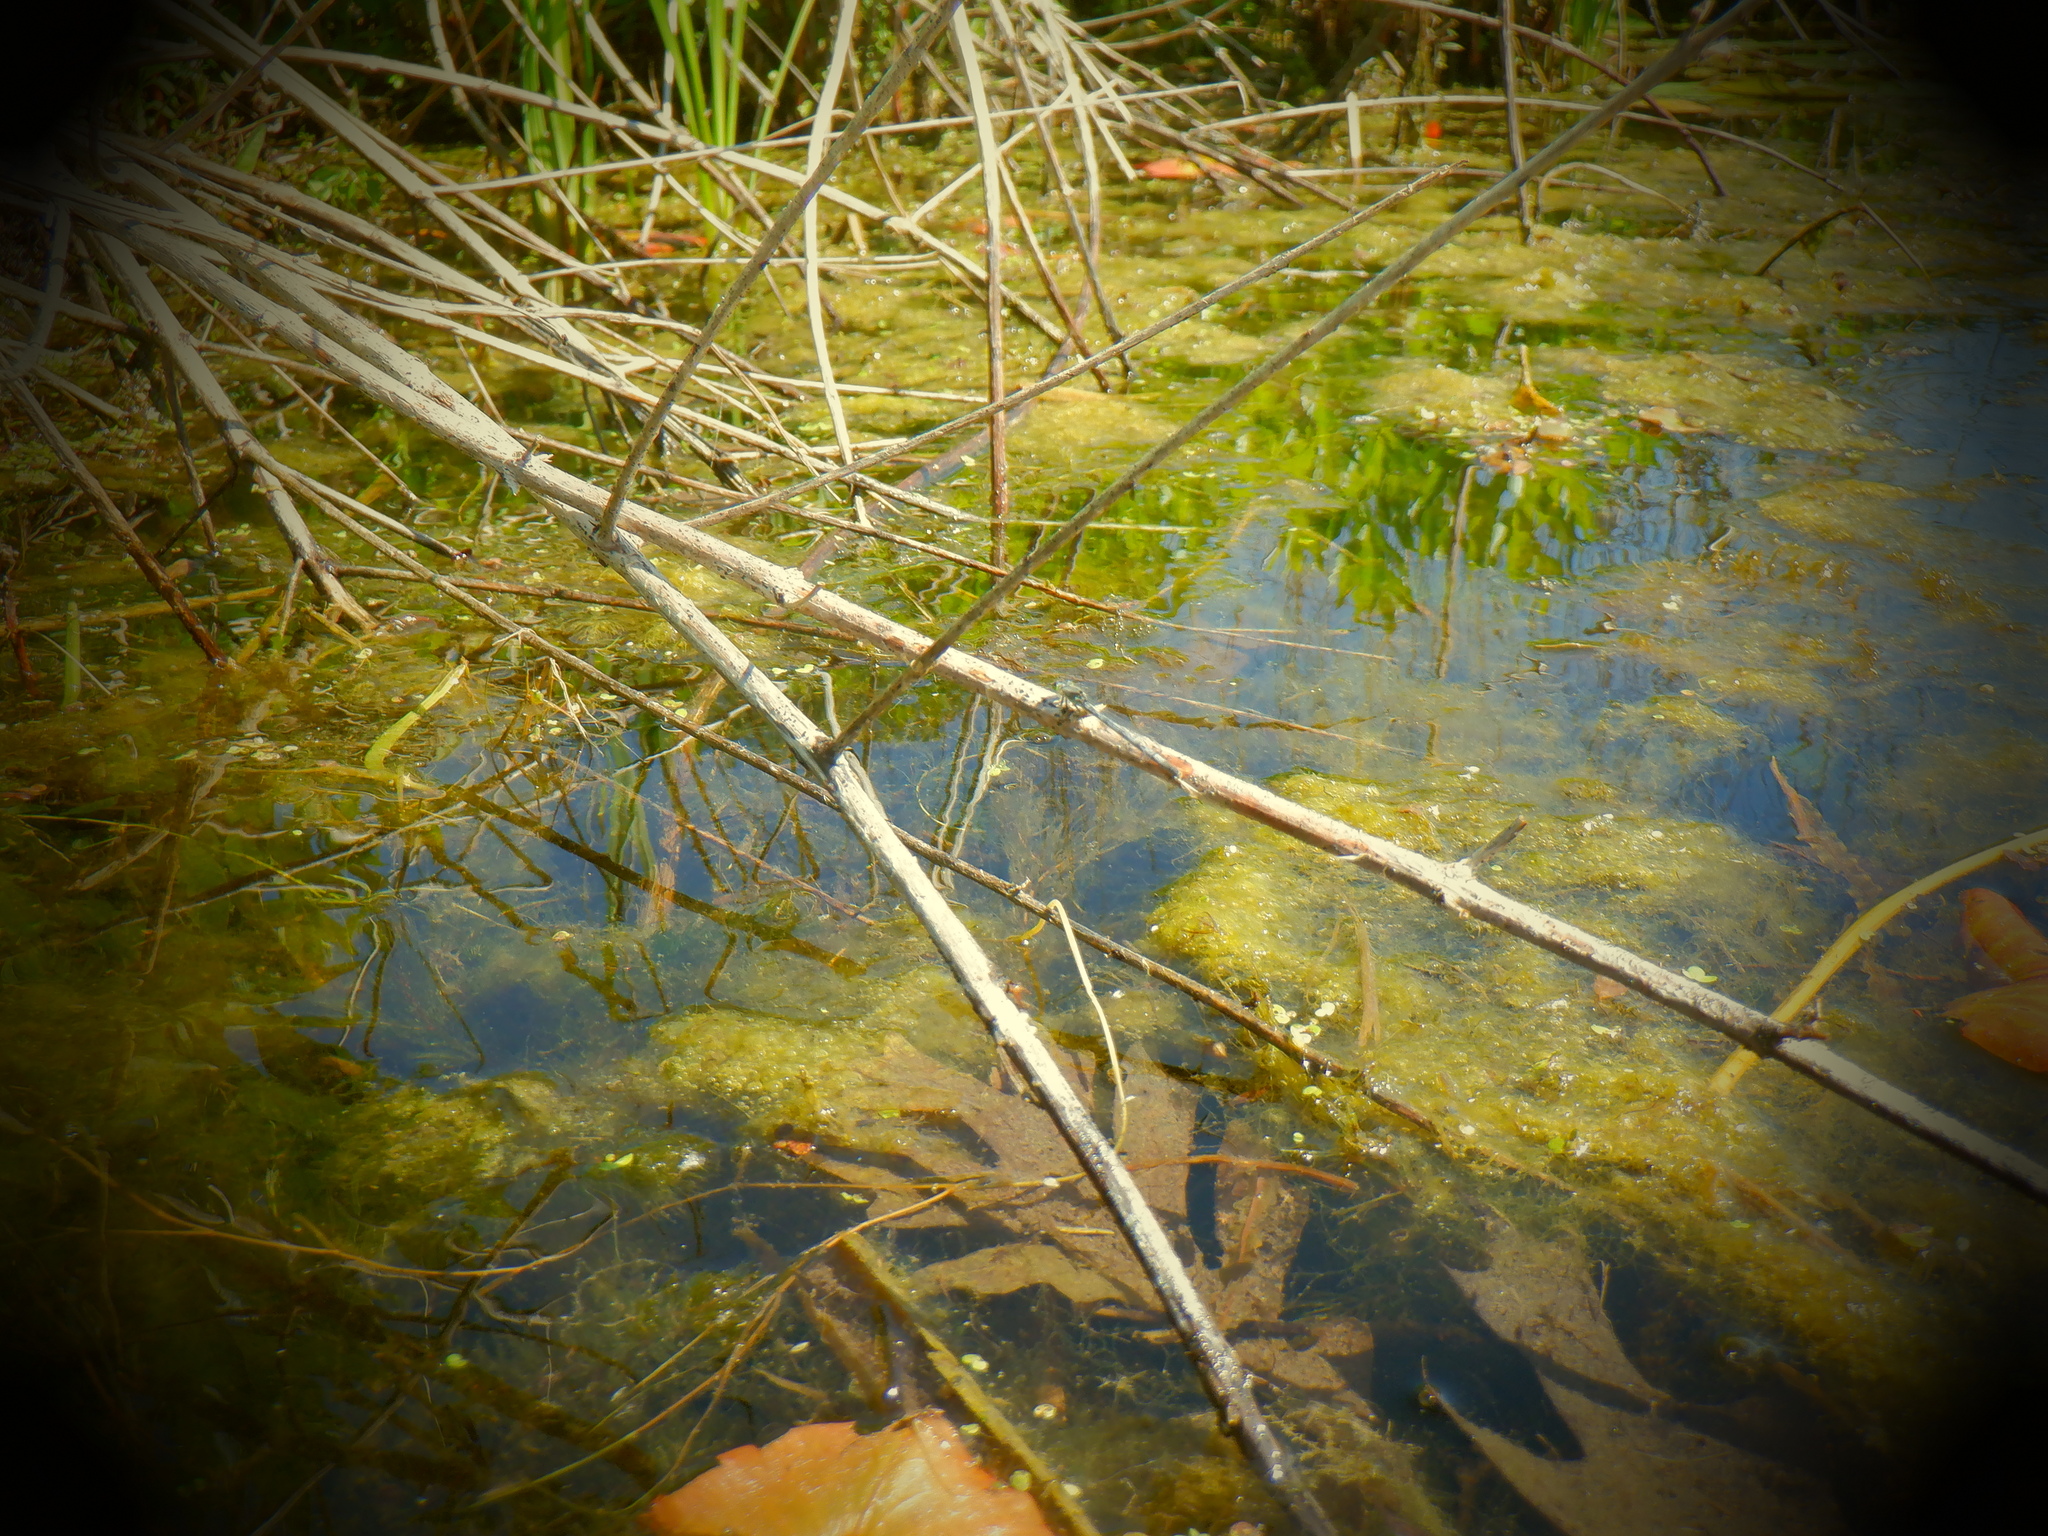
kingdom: Animalia
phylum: Arthropoda
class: Insecta
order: Odonata
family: Coenagrionidae
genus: Ischnura
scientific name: Ischnura verticalis
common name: Eastern forktail
